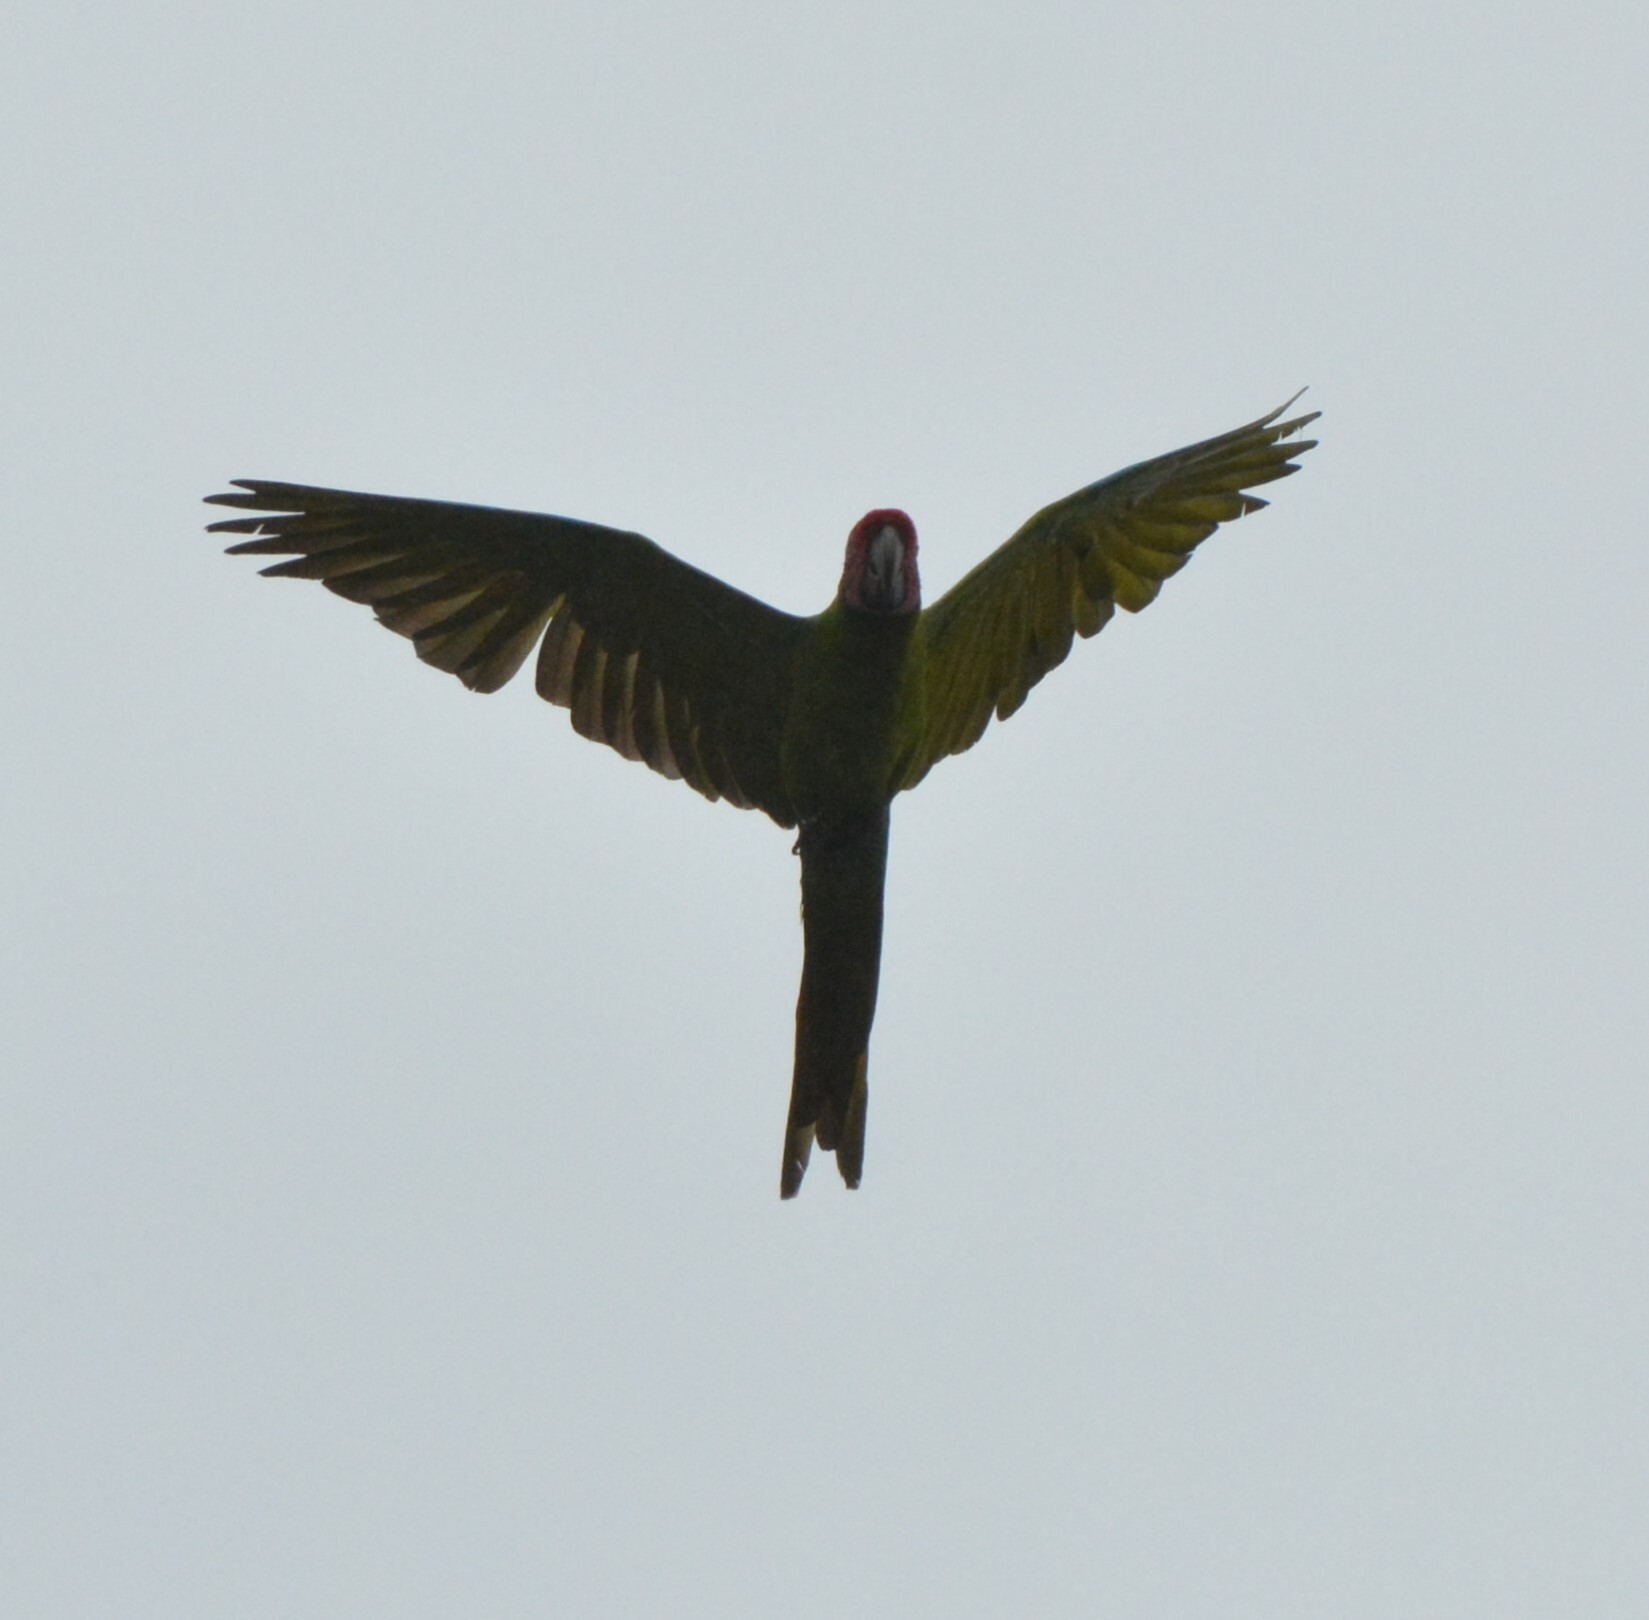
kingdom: Animalia
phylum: Chordata
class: Aves
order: Psittaciformes
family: Psittacidae
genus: Ara
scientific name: Ara ambiguus
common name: Great green macaw
